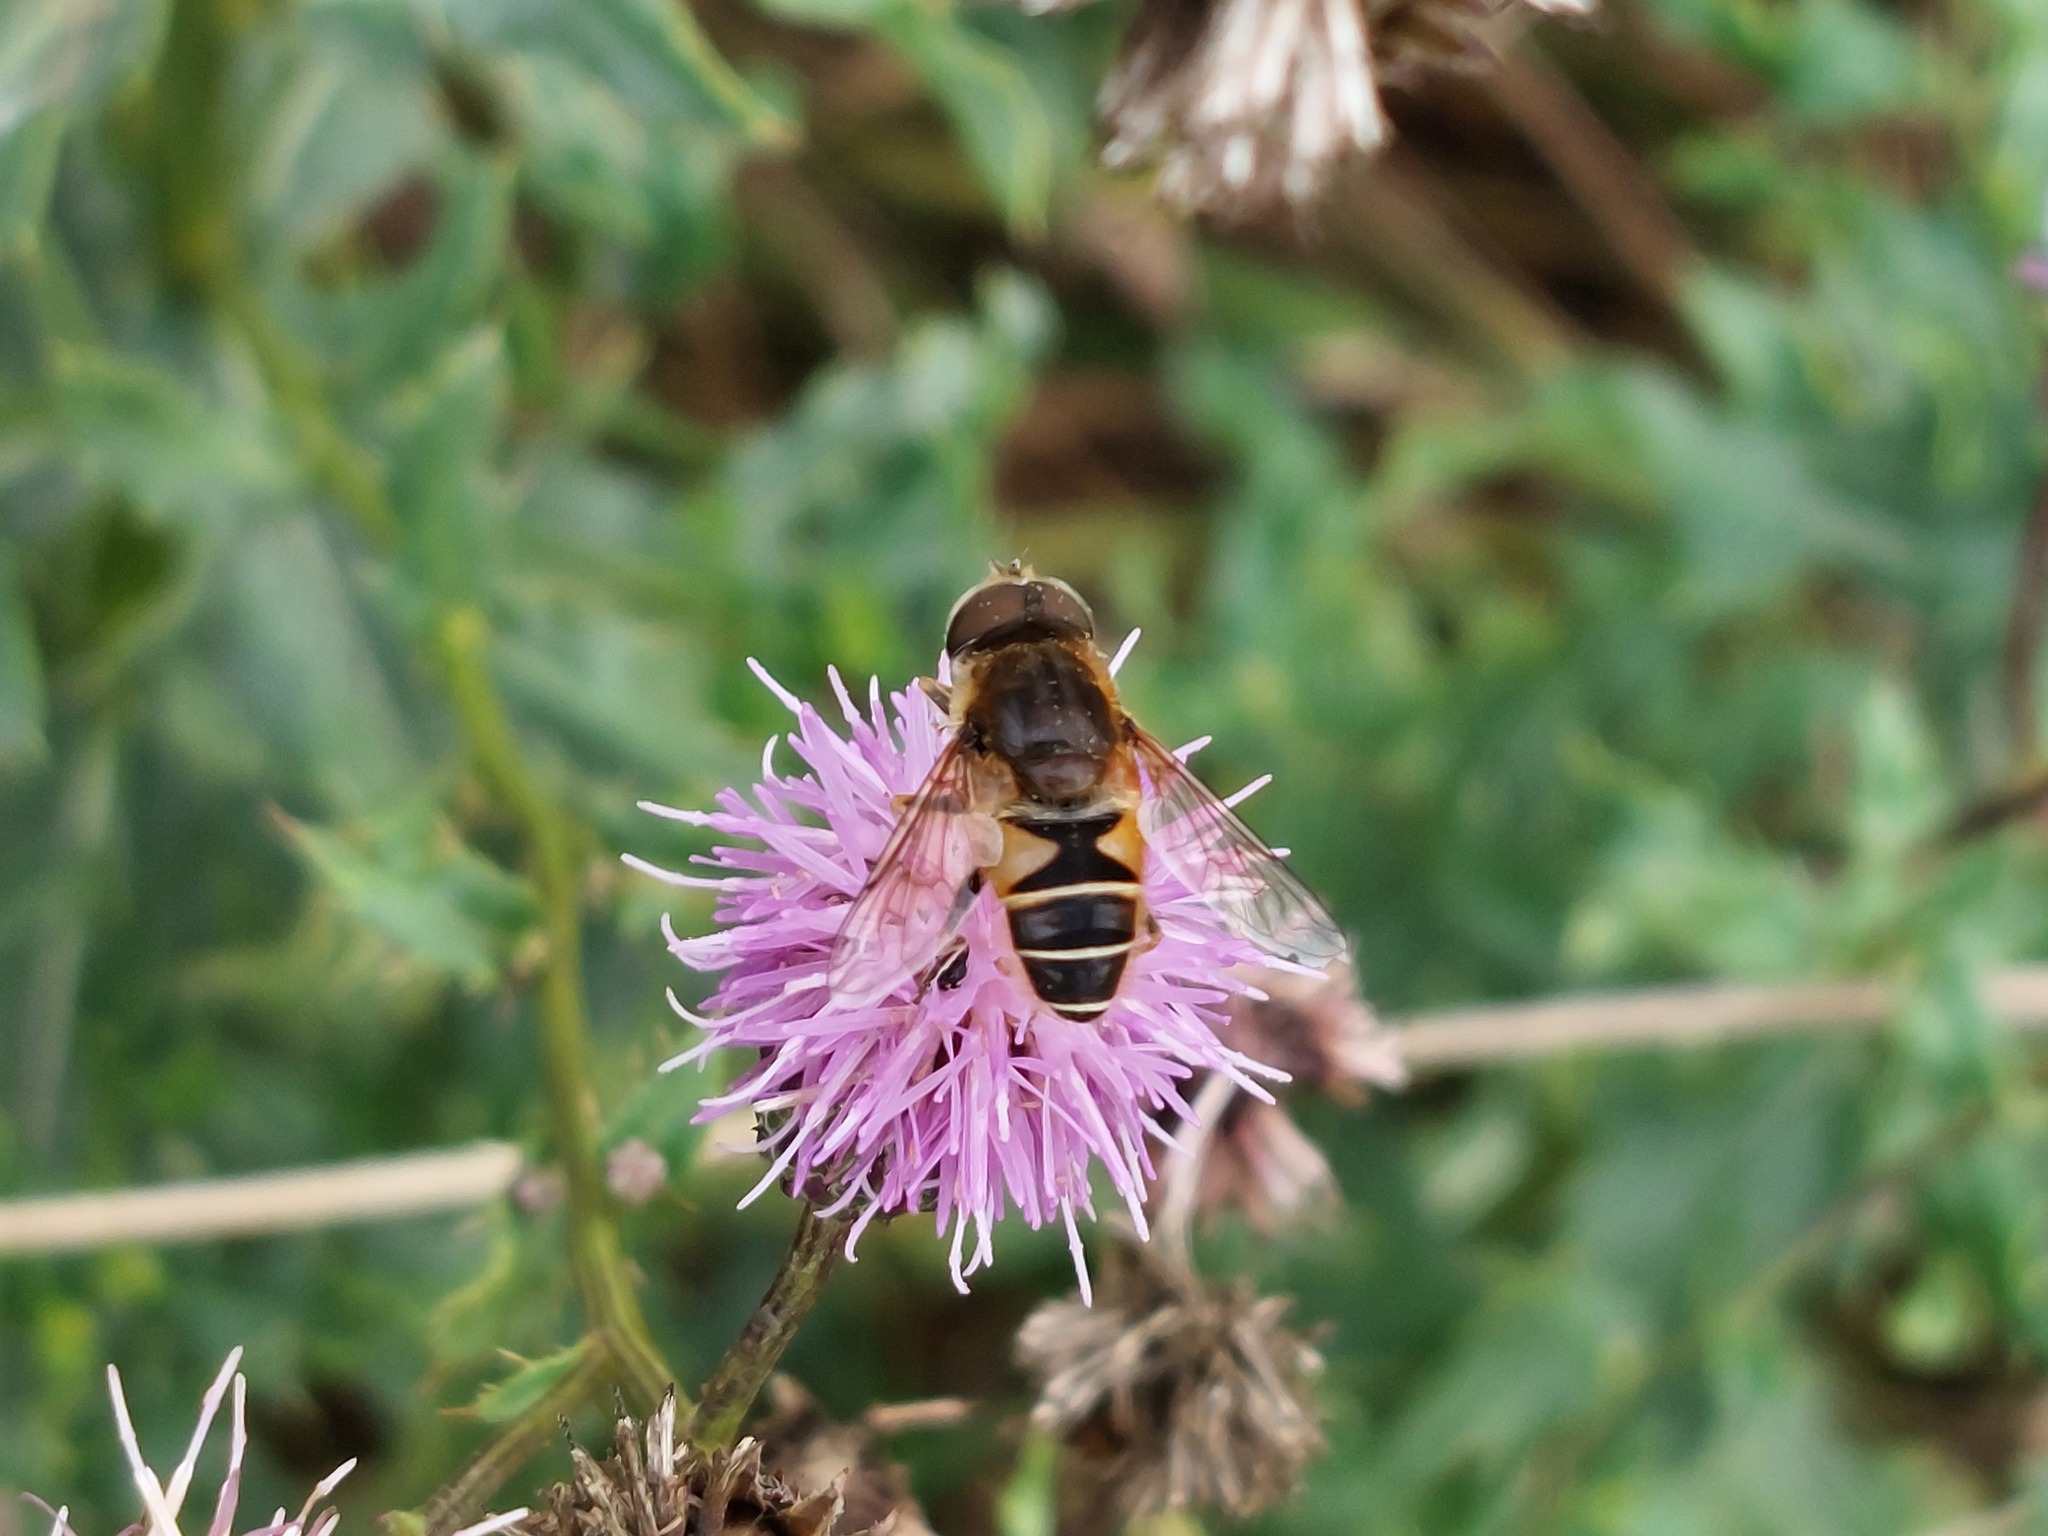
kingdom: Animalia
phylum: Arthropoda
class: Insecta
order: Diptera
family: Syrphidae
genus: Eristalis
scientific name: Eristalis nemorum
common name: Orange-spined drone fly
